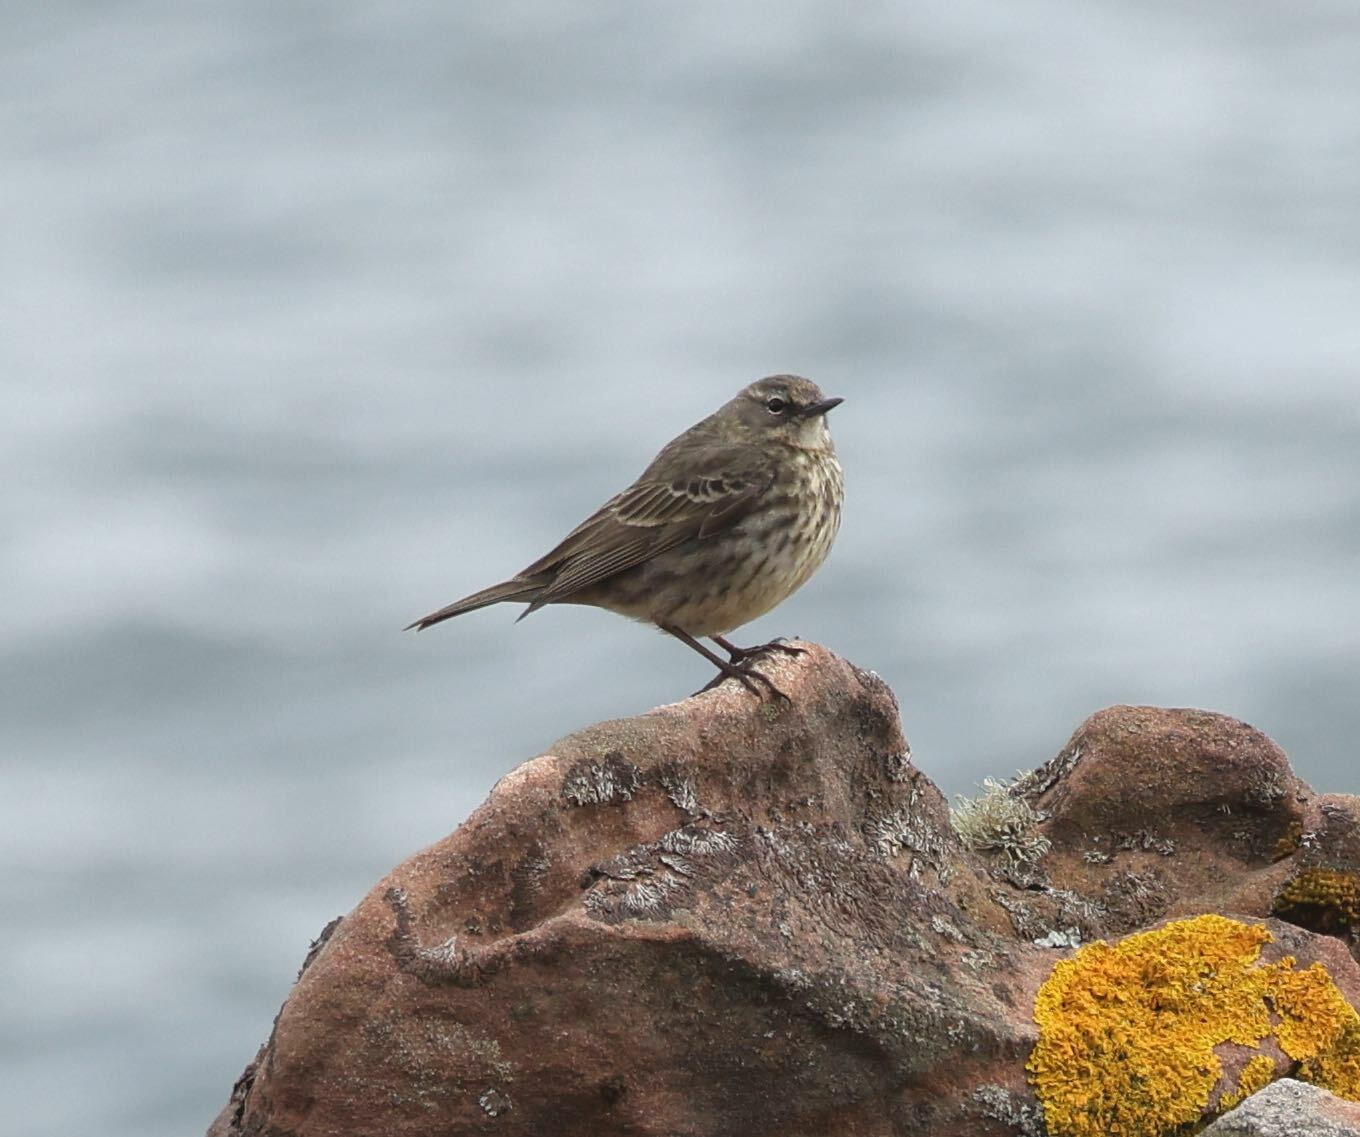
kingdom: Animalia
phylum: Chordata
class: Aves
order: Passeriformes
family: Motacillidae
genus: Anthus
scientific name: Anthus petrosus
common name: Eurasian rock pipit
